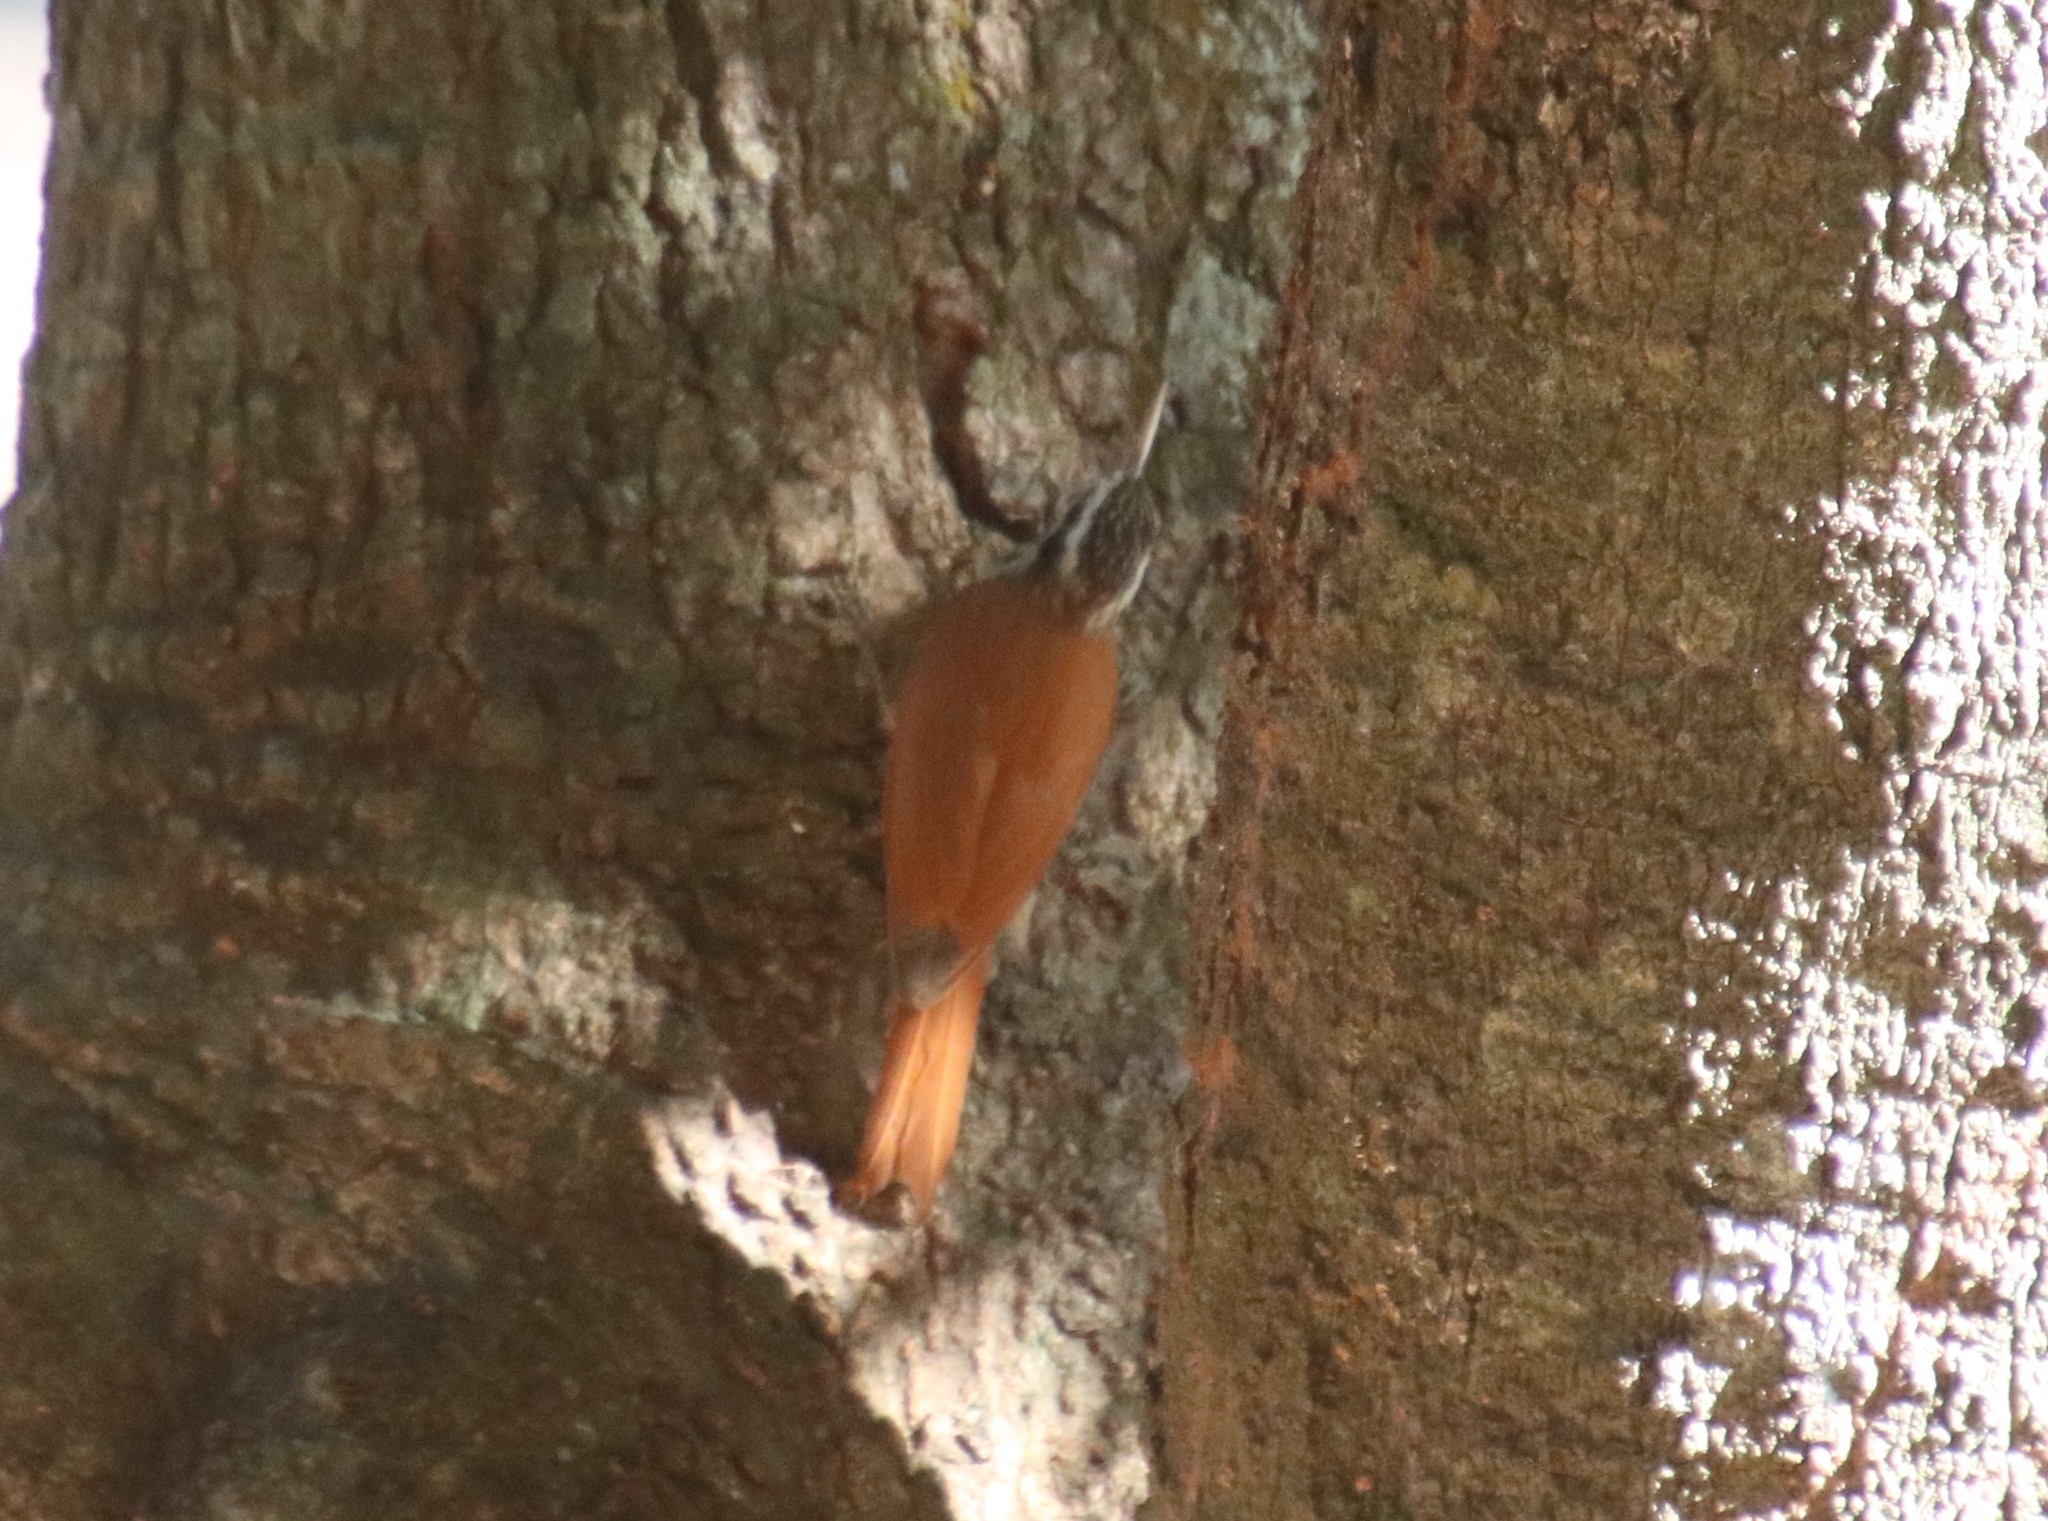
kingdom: Animalia
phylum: Chordata
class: Aves
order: Passeriformes
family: Furnariidae
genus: Lepidocolaptes
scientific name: Lepidocolaptes angustirostris
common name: Narrow-billed woodcreeper
